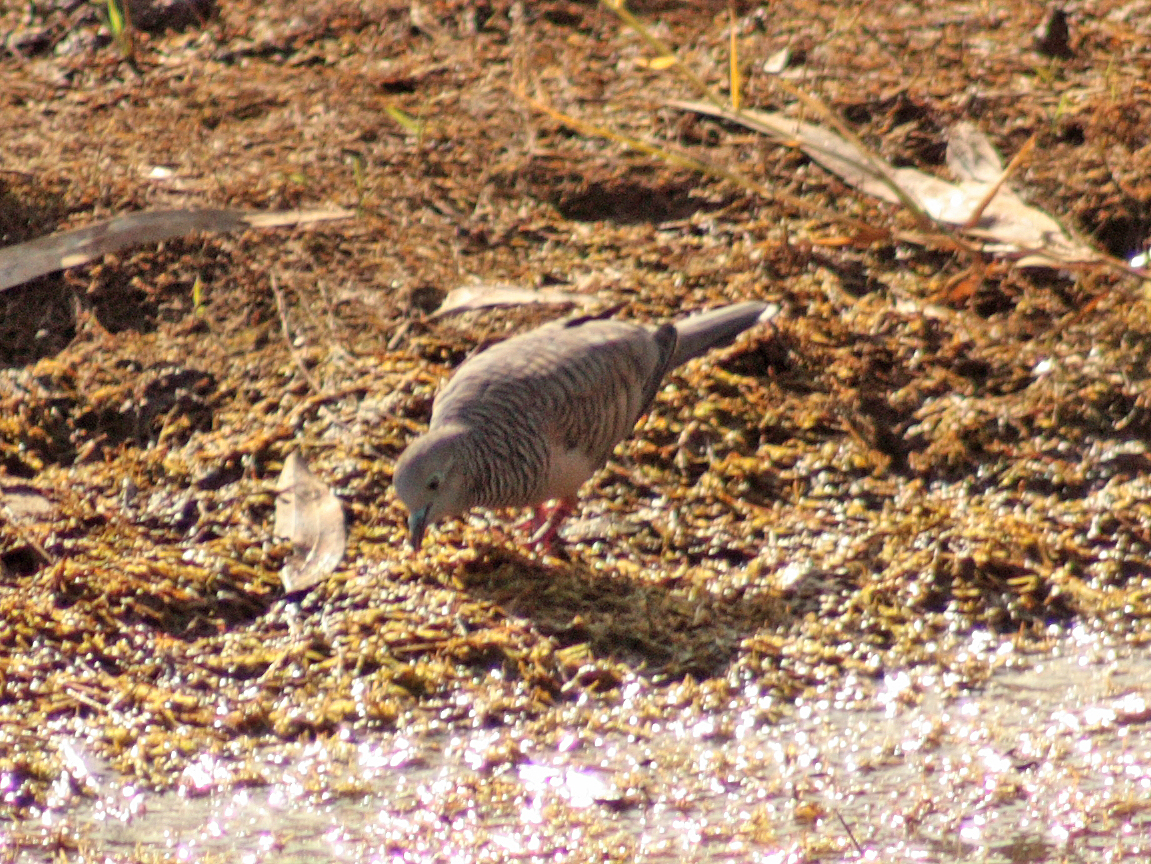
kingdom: Animalia
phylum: Chordata
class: Aves
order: Columbiformes
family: Columbidae
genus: Geopelia
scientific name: Geopelia placida
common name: Peaceful dove
